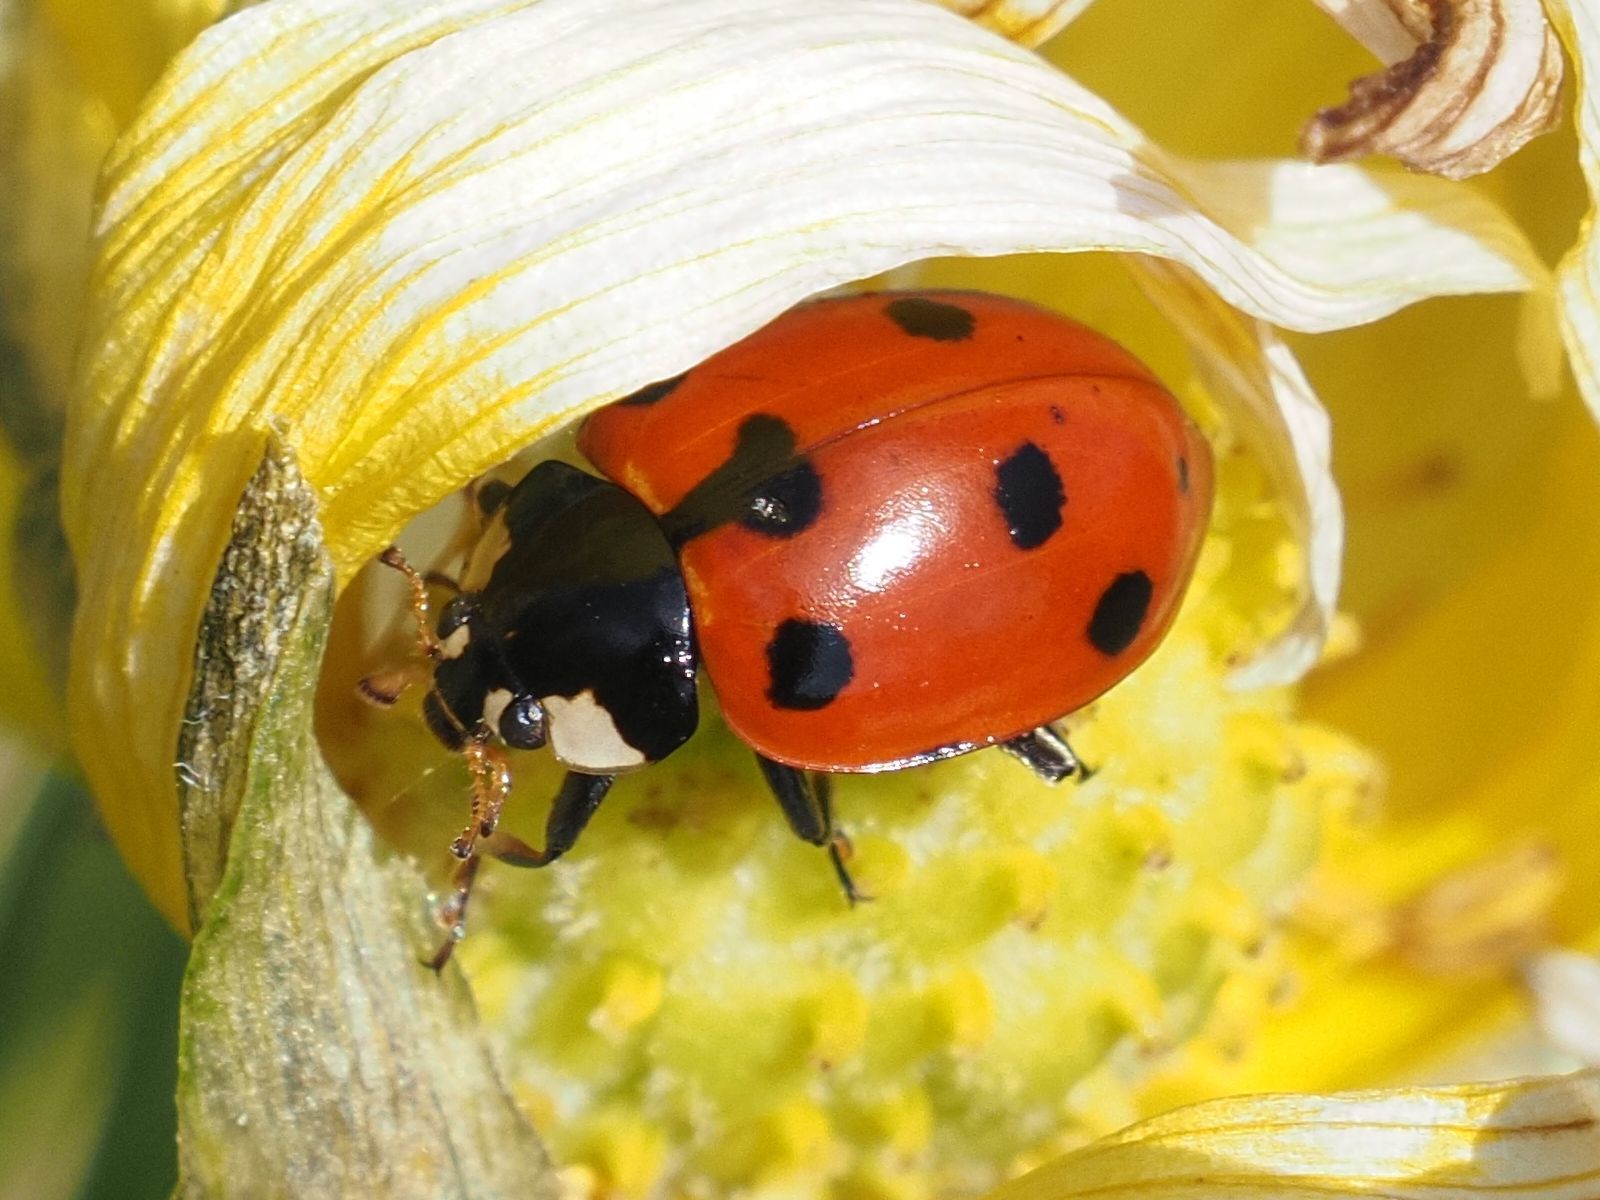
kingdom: Animalia
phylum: Arthropoda
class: Insecta
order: Coleoptera
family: Coccinellidae
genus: Ceratomegilla
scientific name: Ceratomegilla undecimnotata
